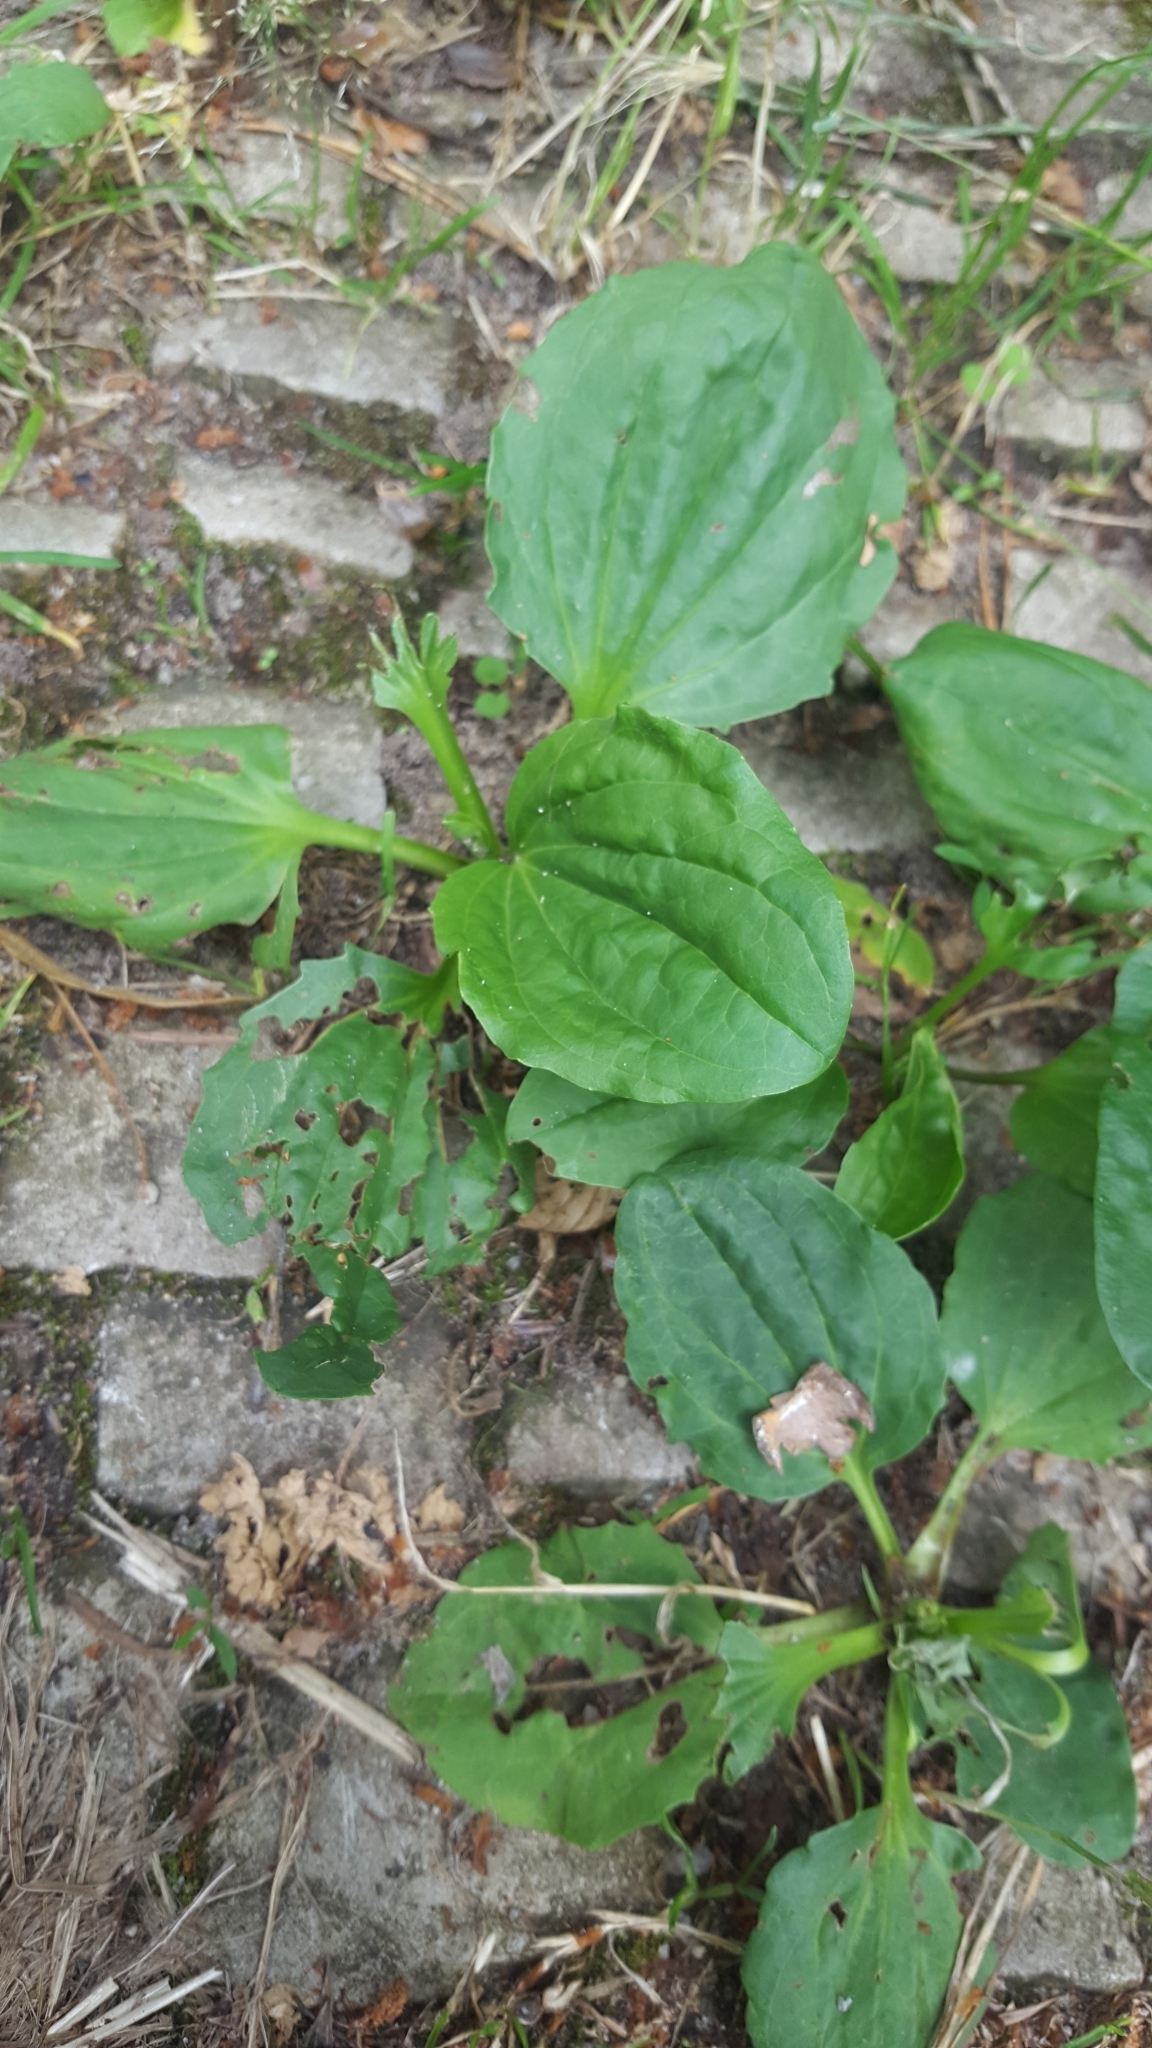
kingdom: Plantae
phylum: Tracheophyta
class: Magnoliopsida
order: Lamiales
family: Plantaginaceae
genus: Plantago
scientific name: Plantago major
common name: Common plantain
